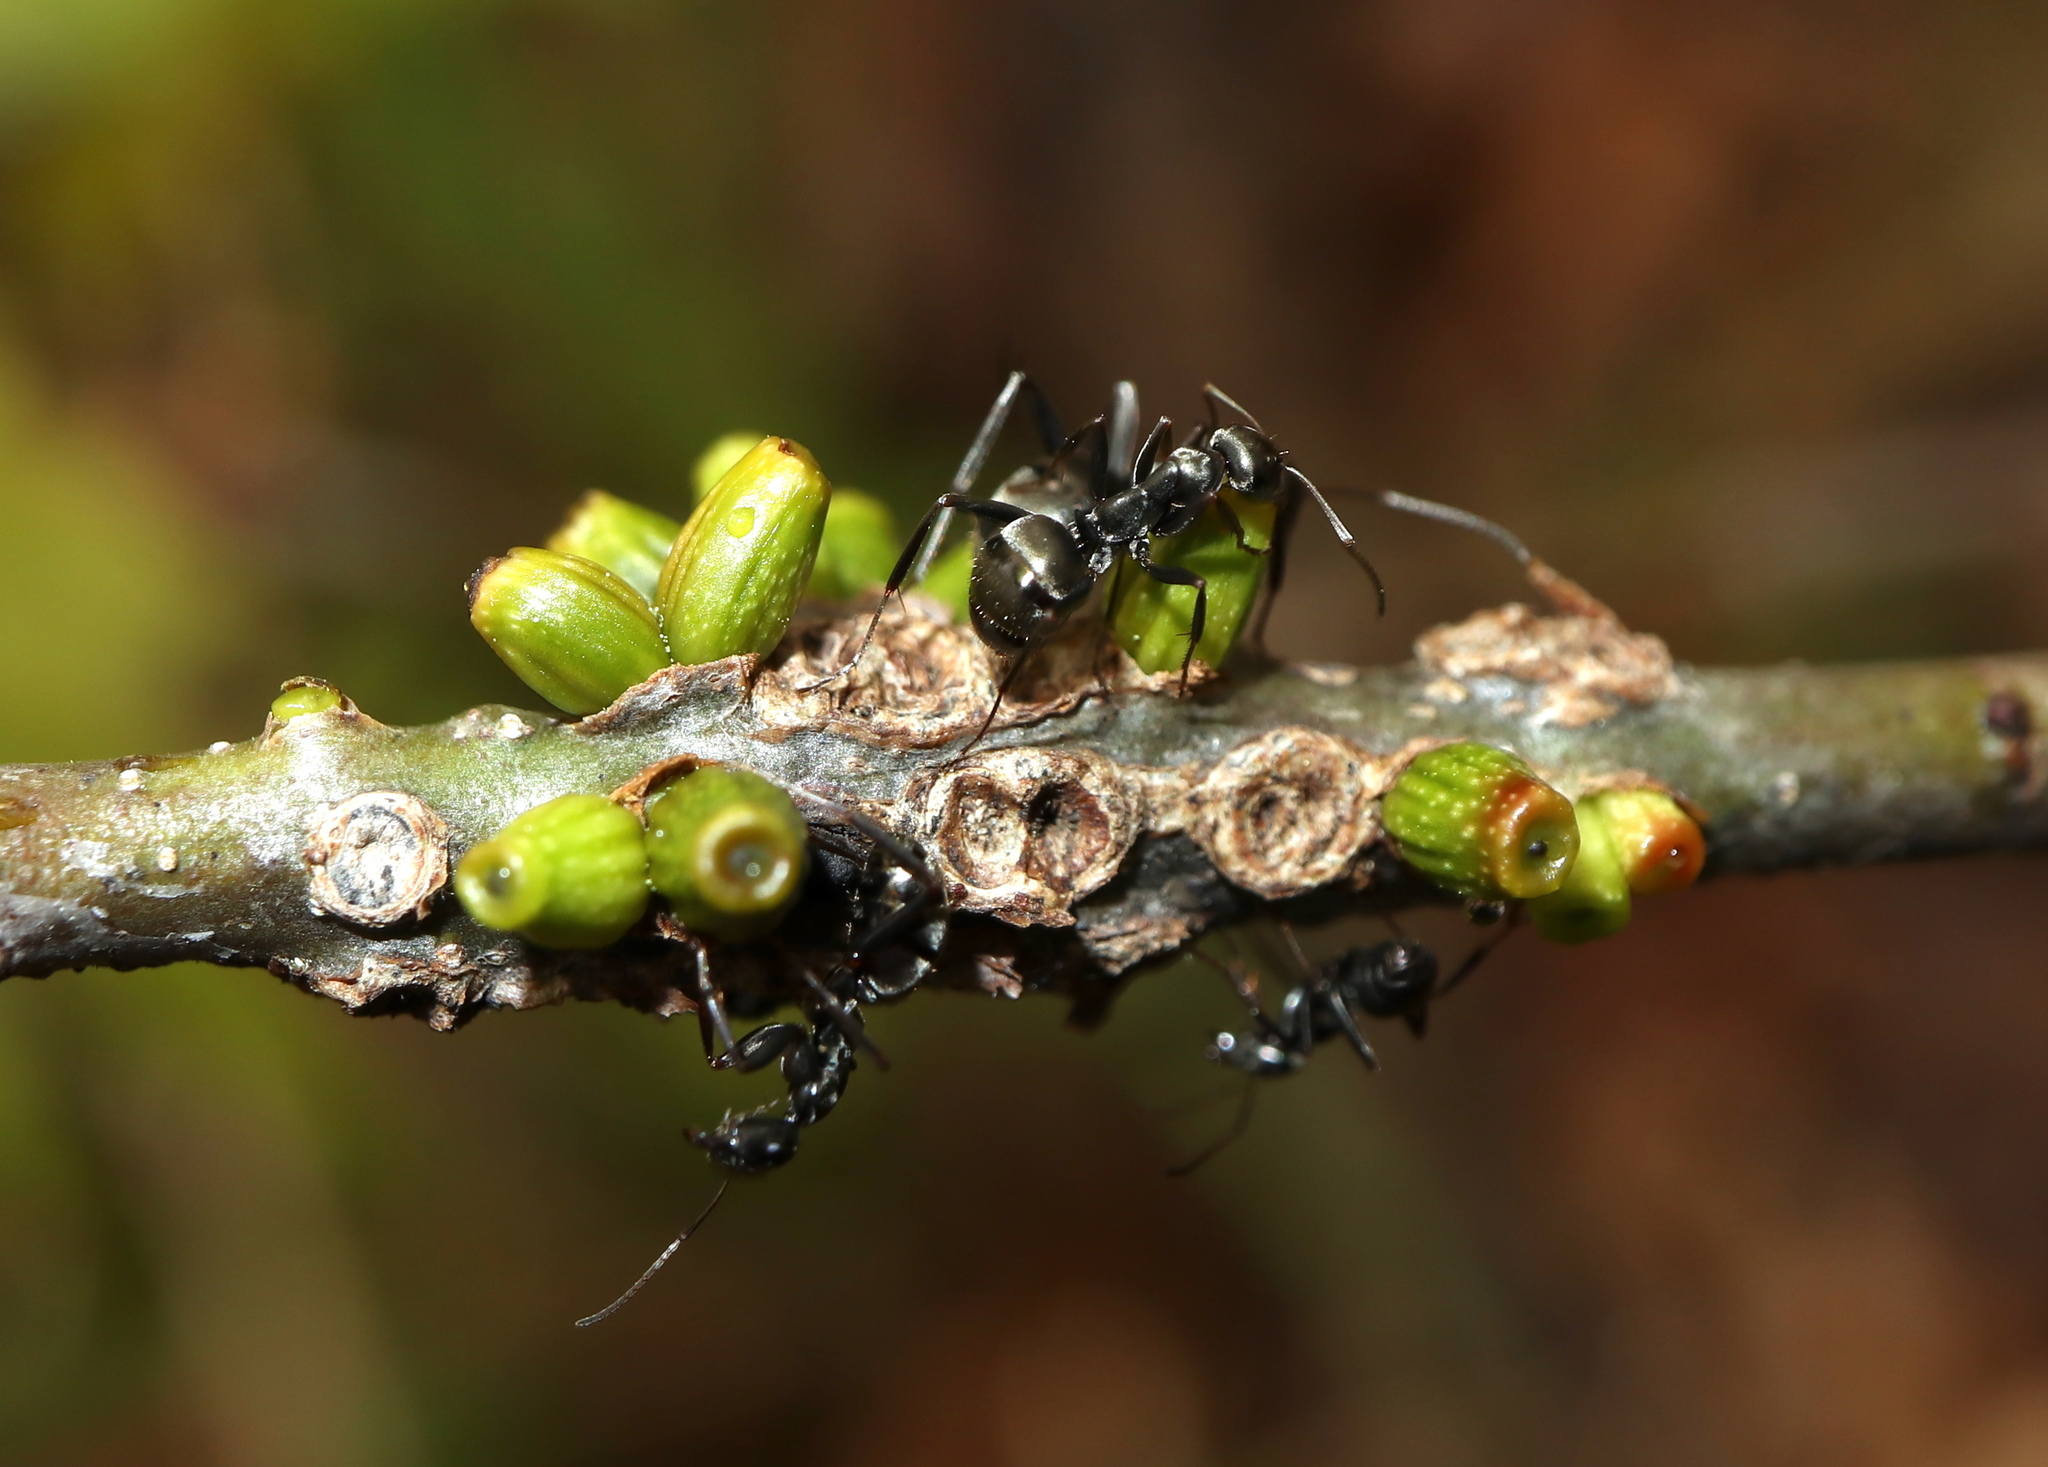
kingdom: Animalia
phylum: Arthropoda
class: Insecta
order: Hymenoptera
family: Cynipidae
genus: Callirhytis
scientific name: Callirhytis
